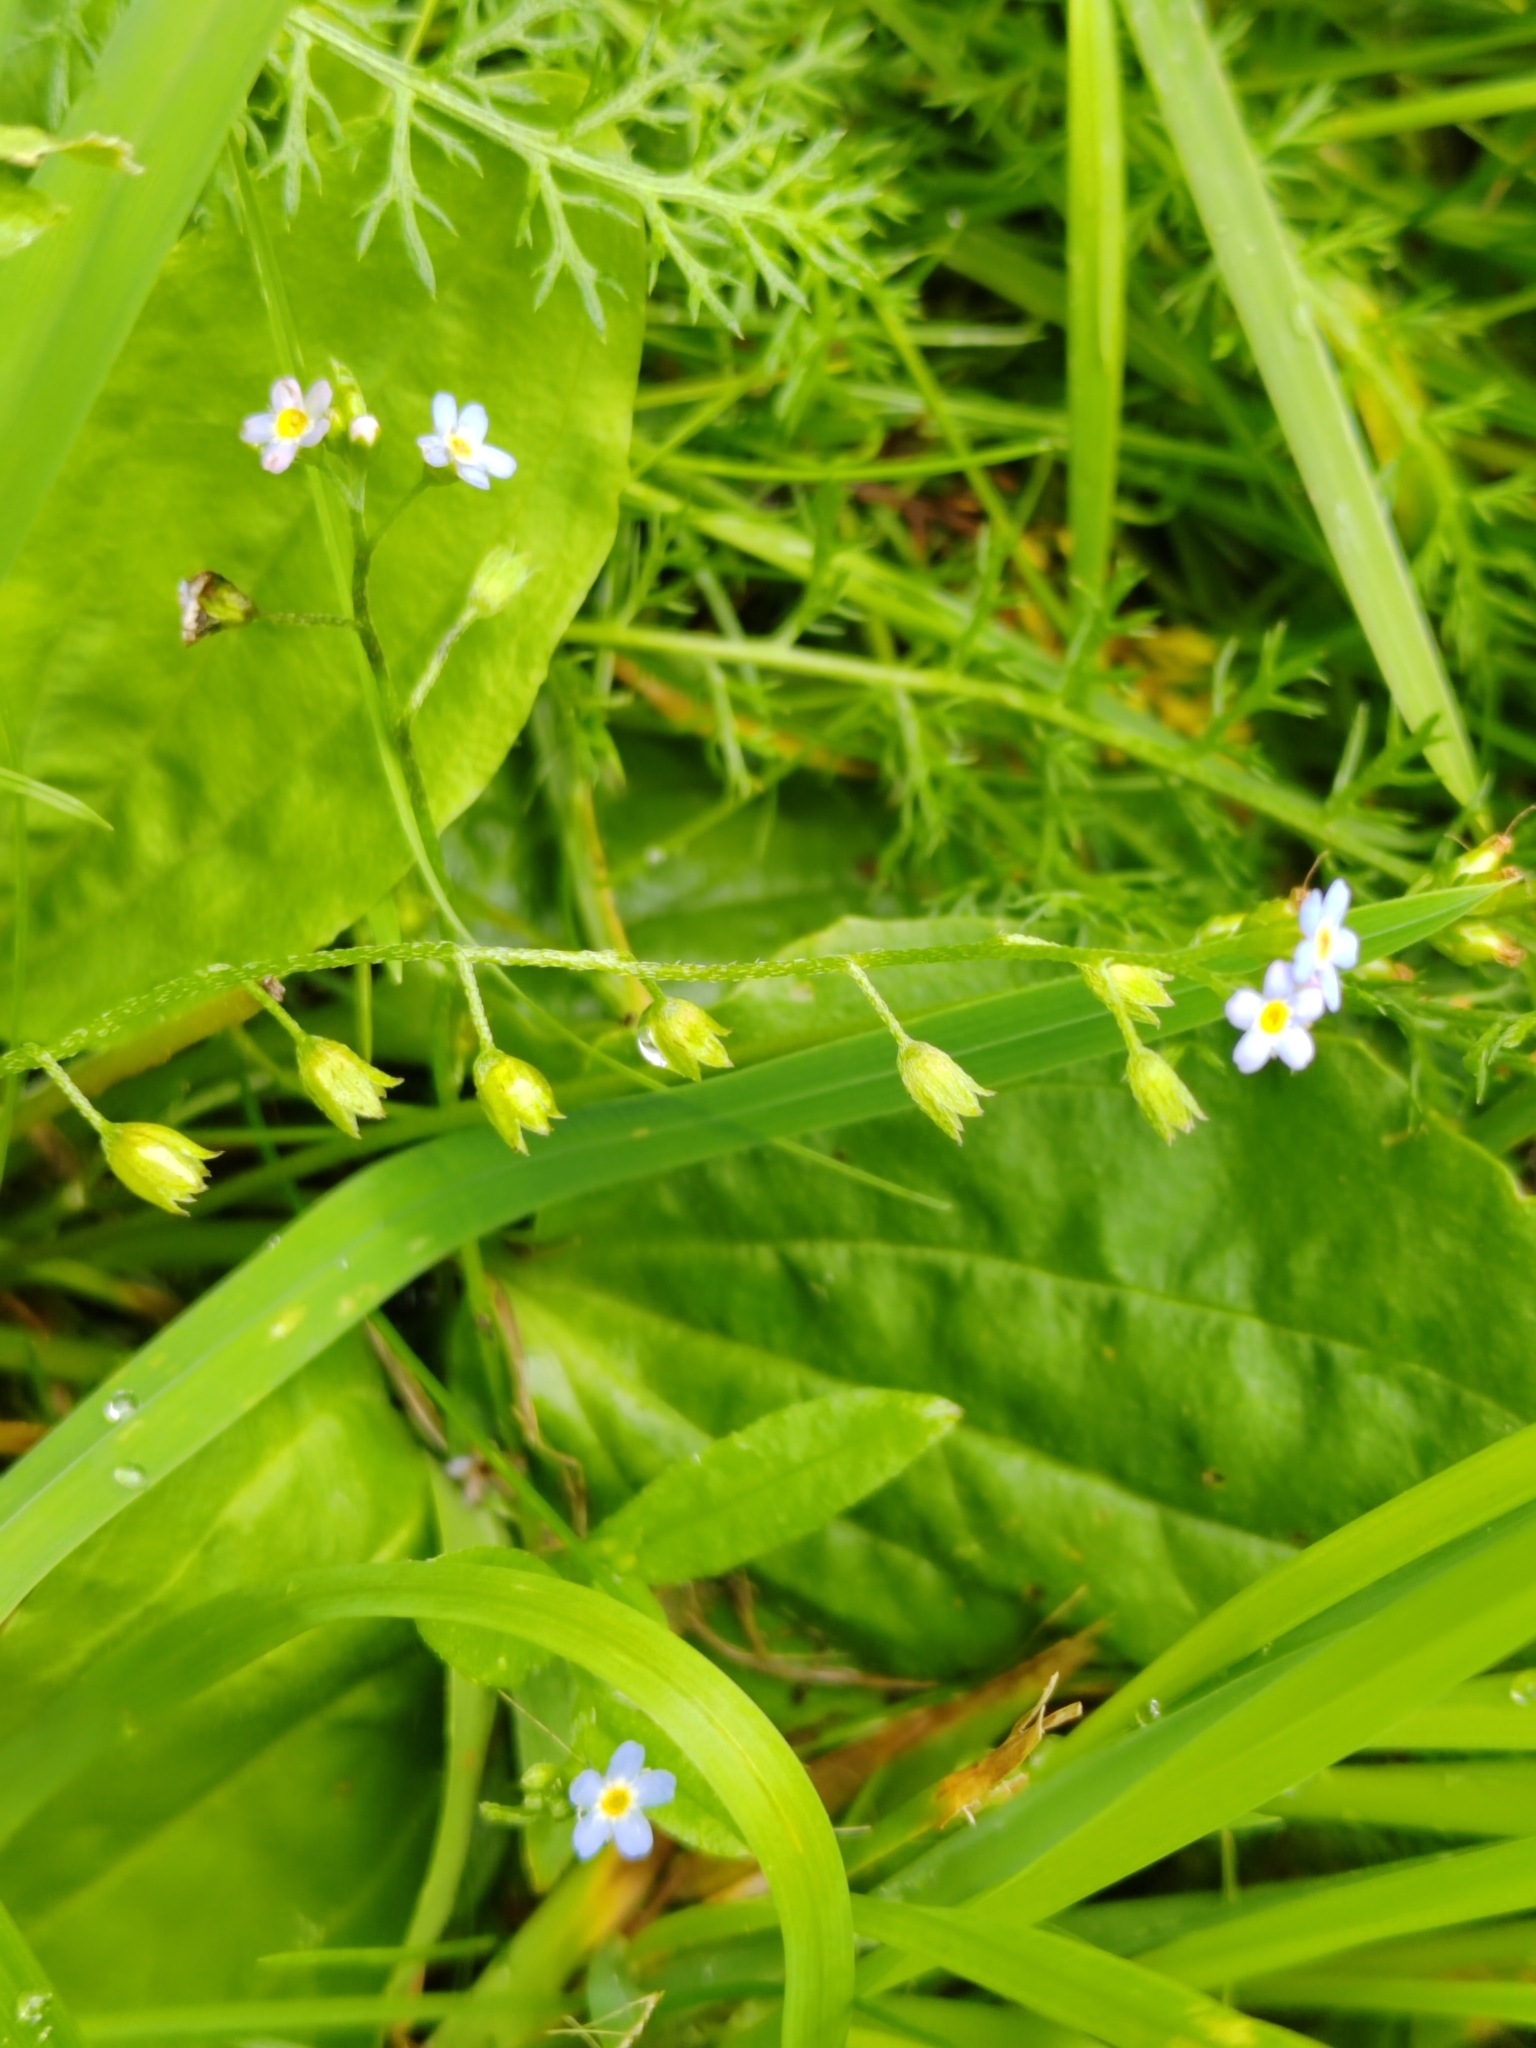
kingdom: Plantae
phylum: Tracheophyta
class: Magnoliopsida
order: Boraginales
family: Boraginaceae
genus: Myosotis
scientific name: Myosotis scorpioides
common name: Water forget-me-not
